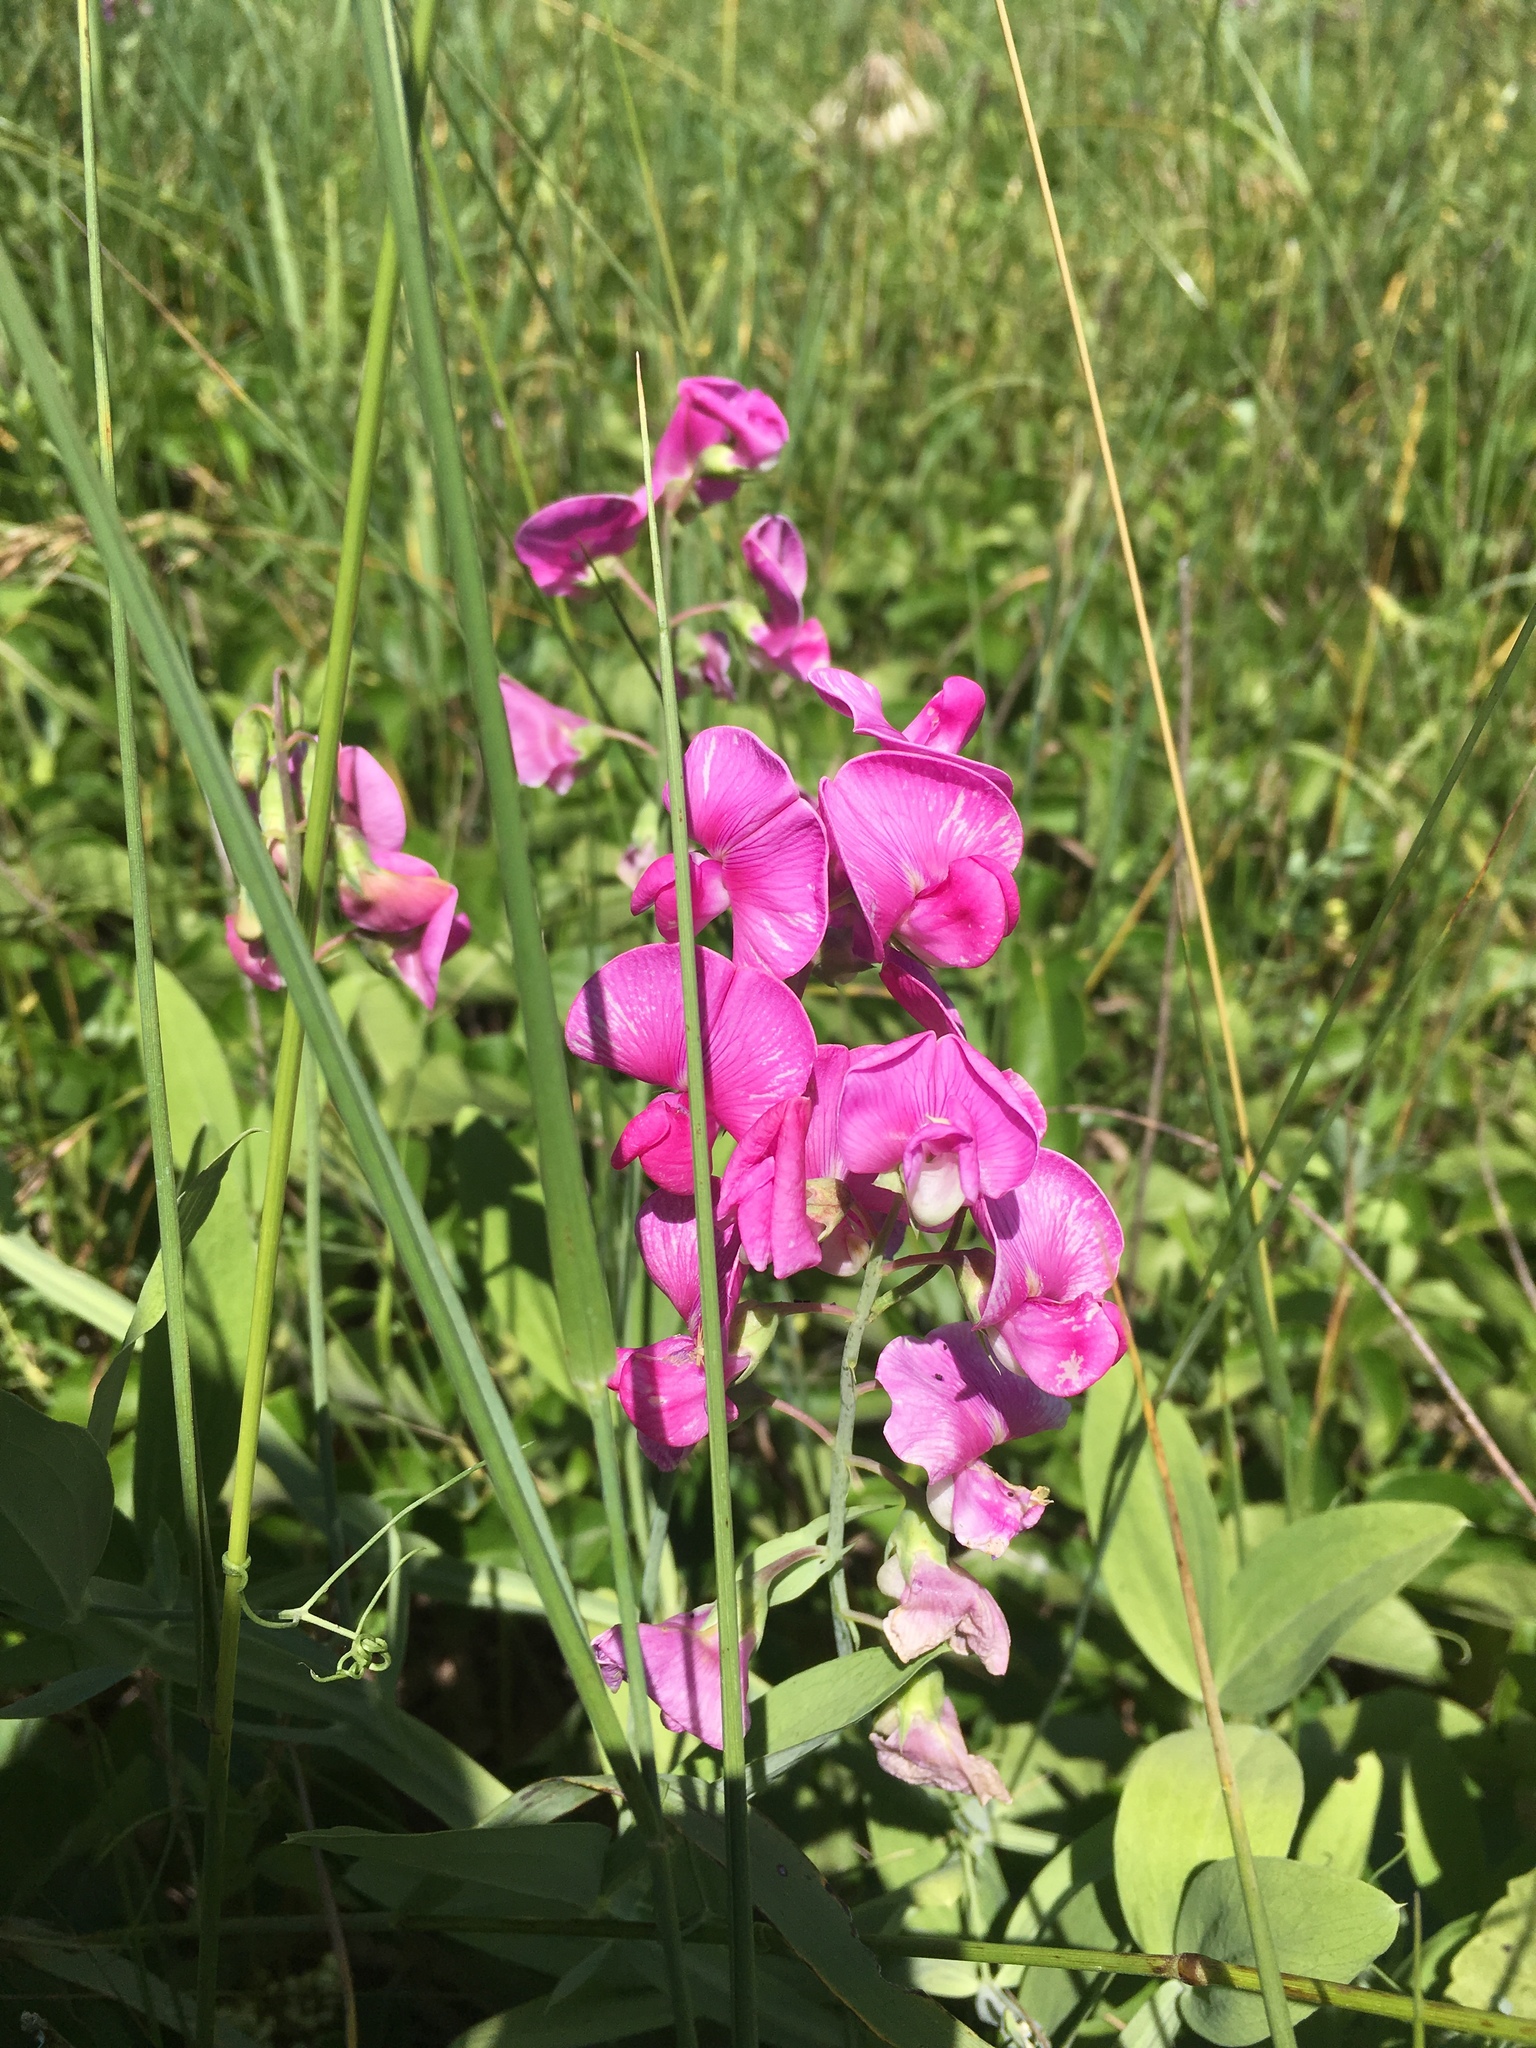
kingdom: Plantae
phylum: Tracheophyta
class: Magnoliopsida
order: Fabales
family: Fabaceae
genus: Lathyrus
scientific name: Lathyrus latifolius
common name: Perennial pea
